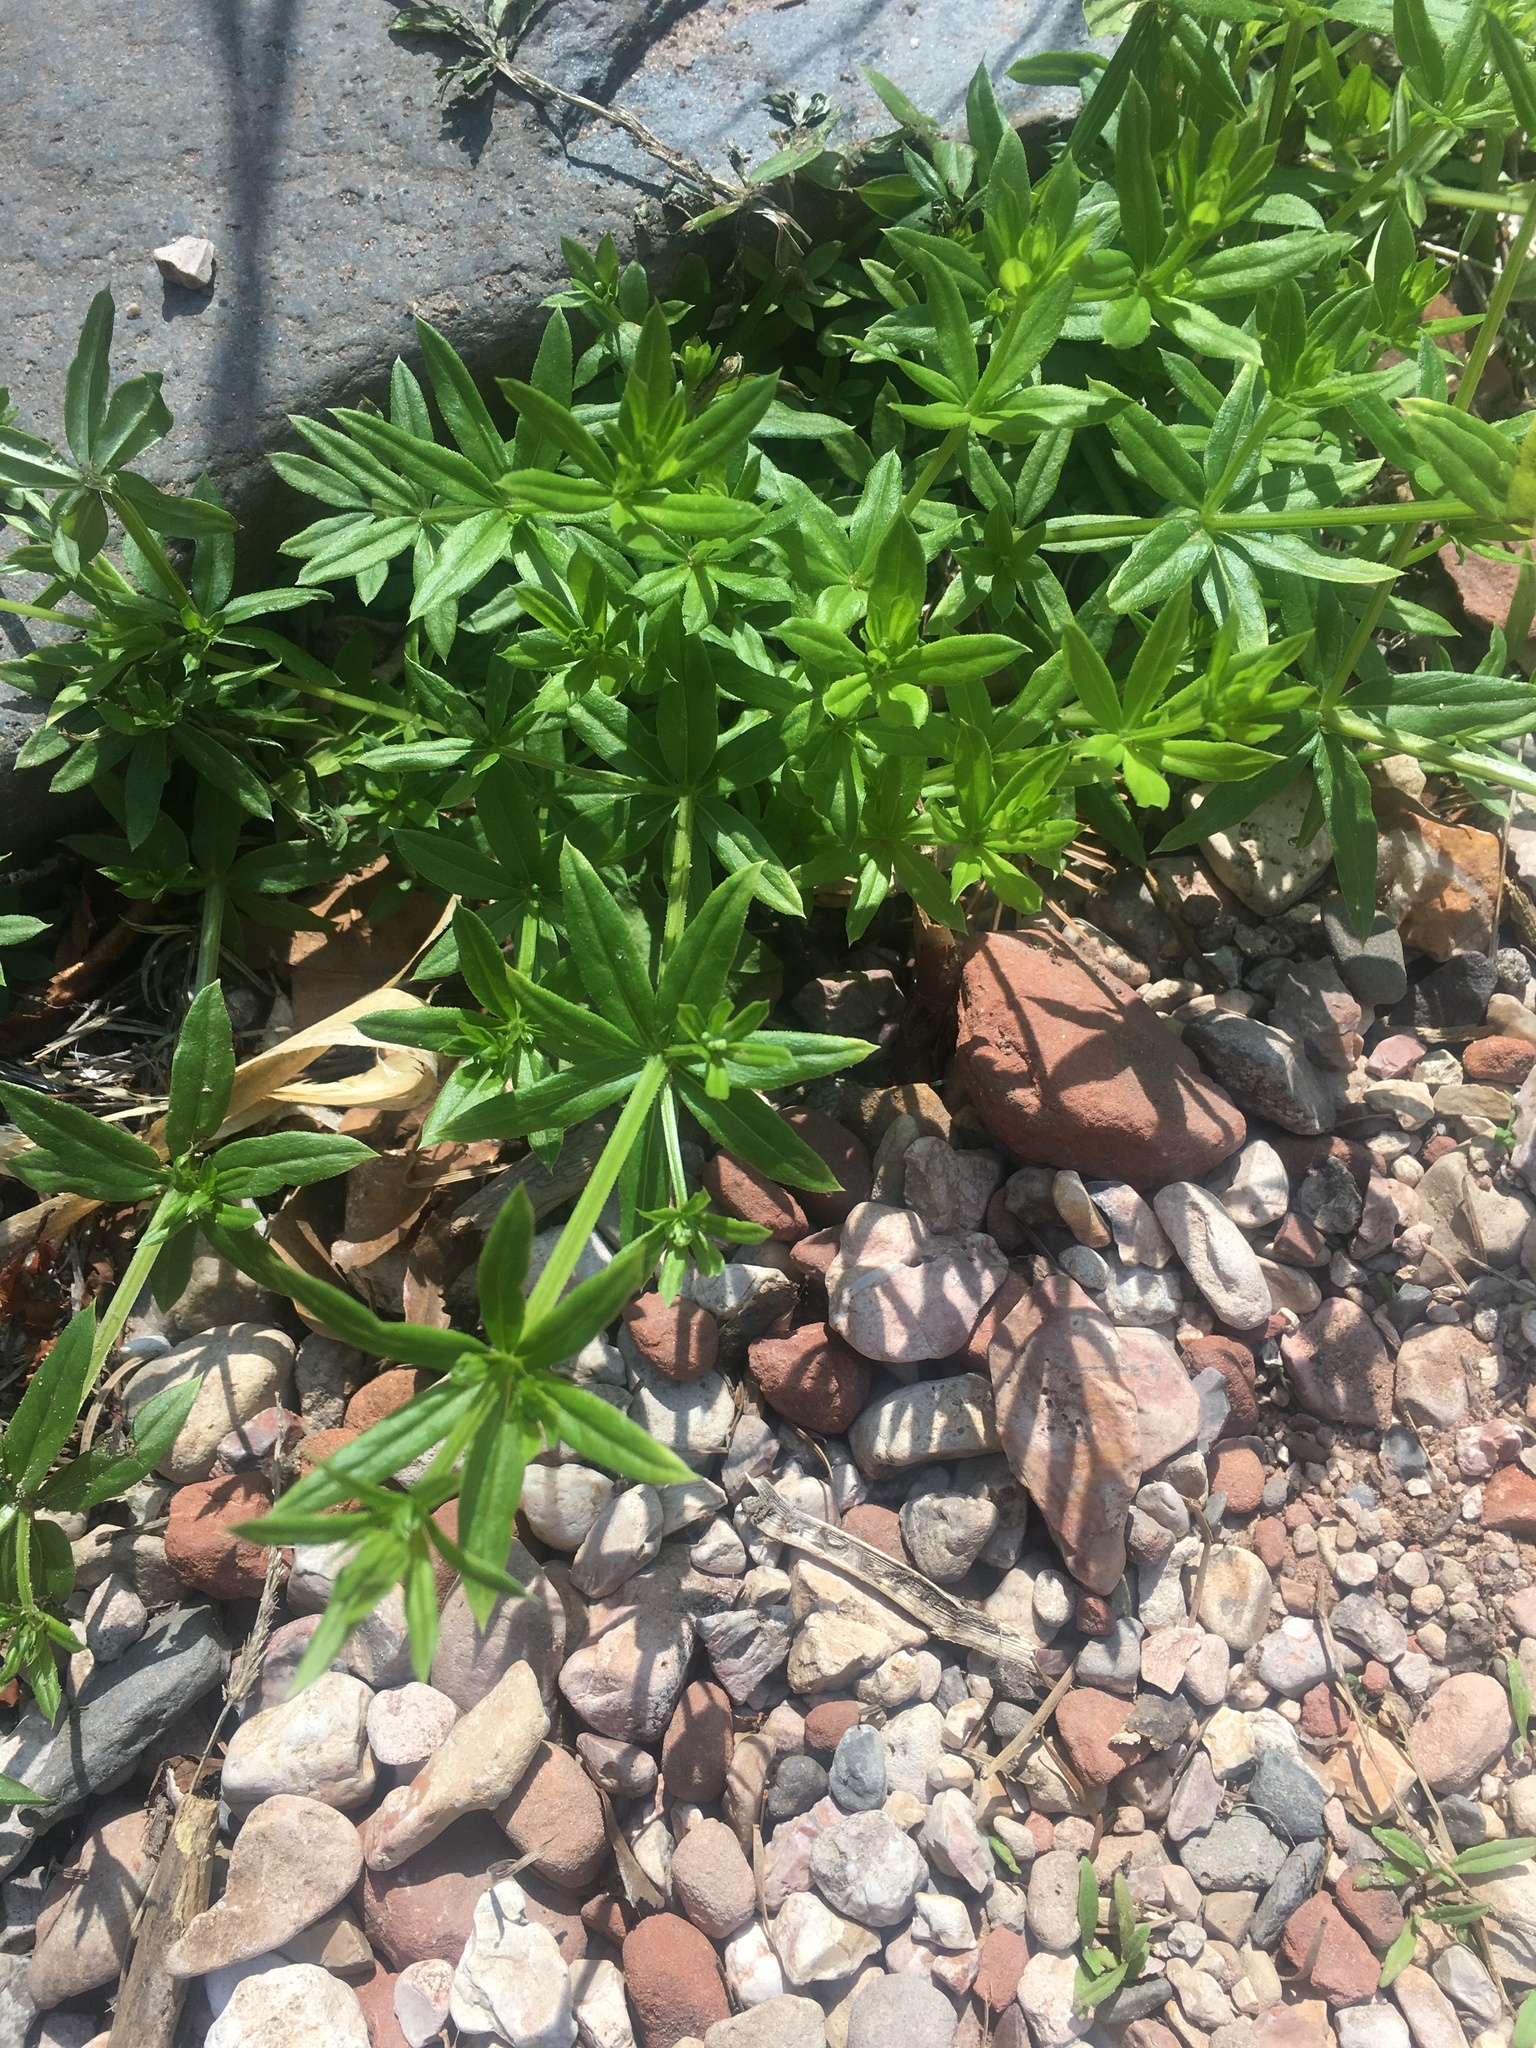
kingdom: Plantae
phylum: Tracheophyta
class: Magnoliopsida
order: Gentianales
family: Rubiaceae
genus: Galium
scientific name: Galium triflorum
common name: Fragrant bedstraw
